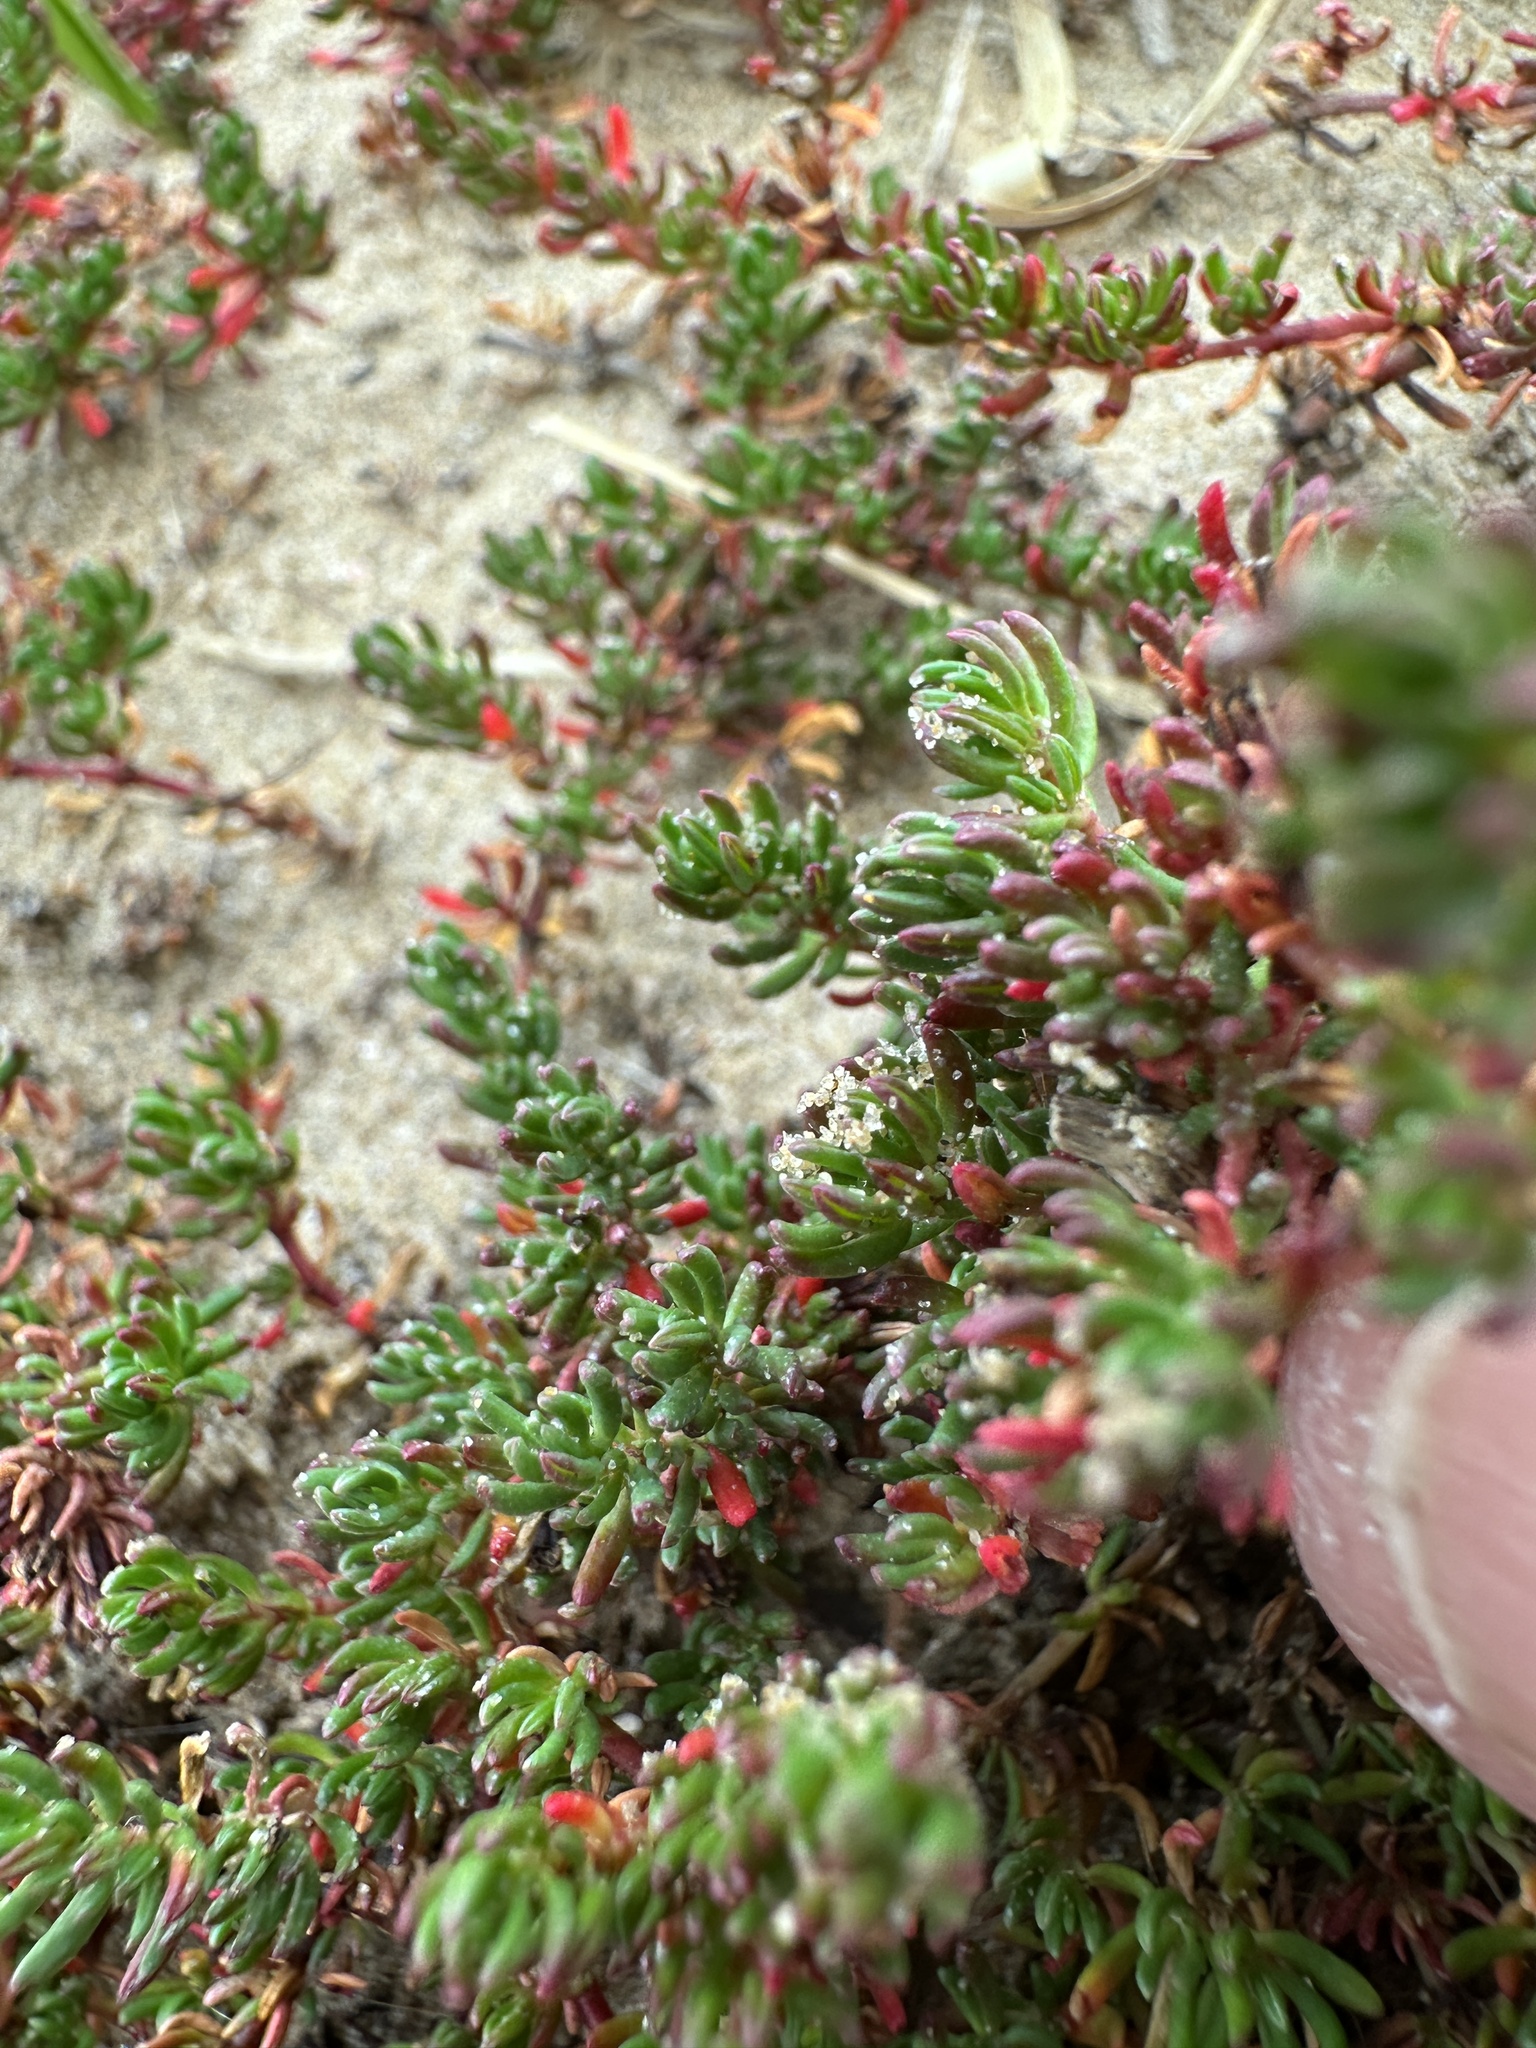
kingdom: Plantae
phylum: Tracheophyta
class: Magnoliopsida
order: Caryophyllales
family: Frankeniaceae
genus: Frankenia
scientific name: Frankenia laevis
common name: Sea-heath
